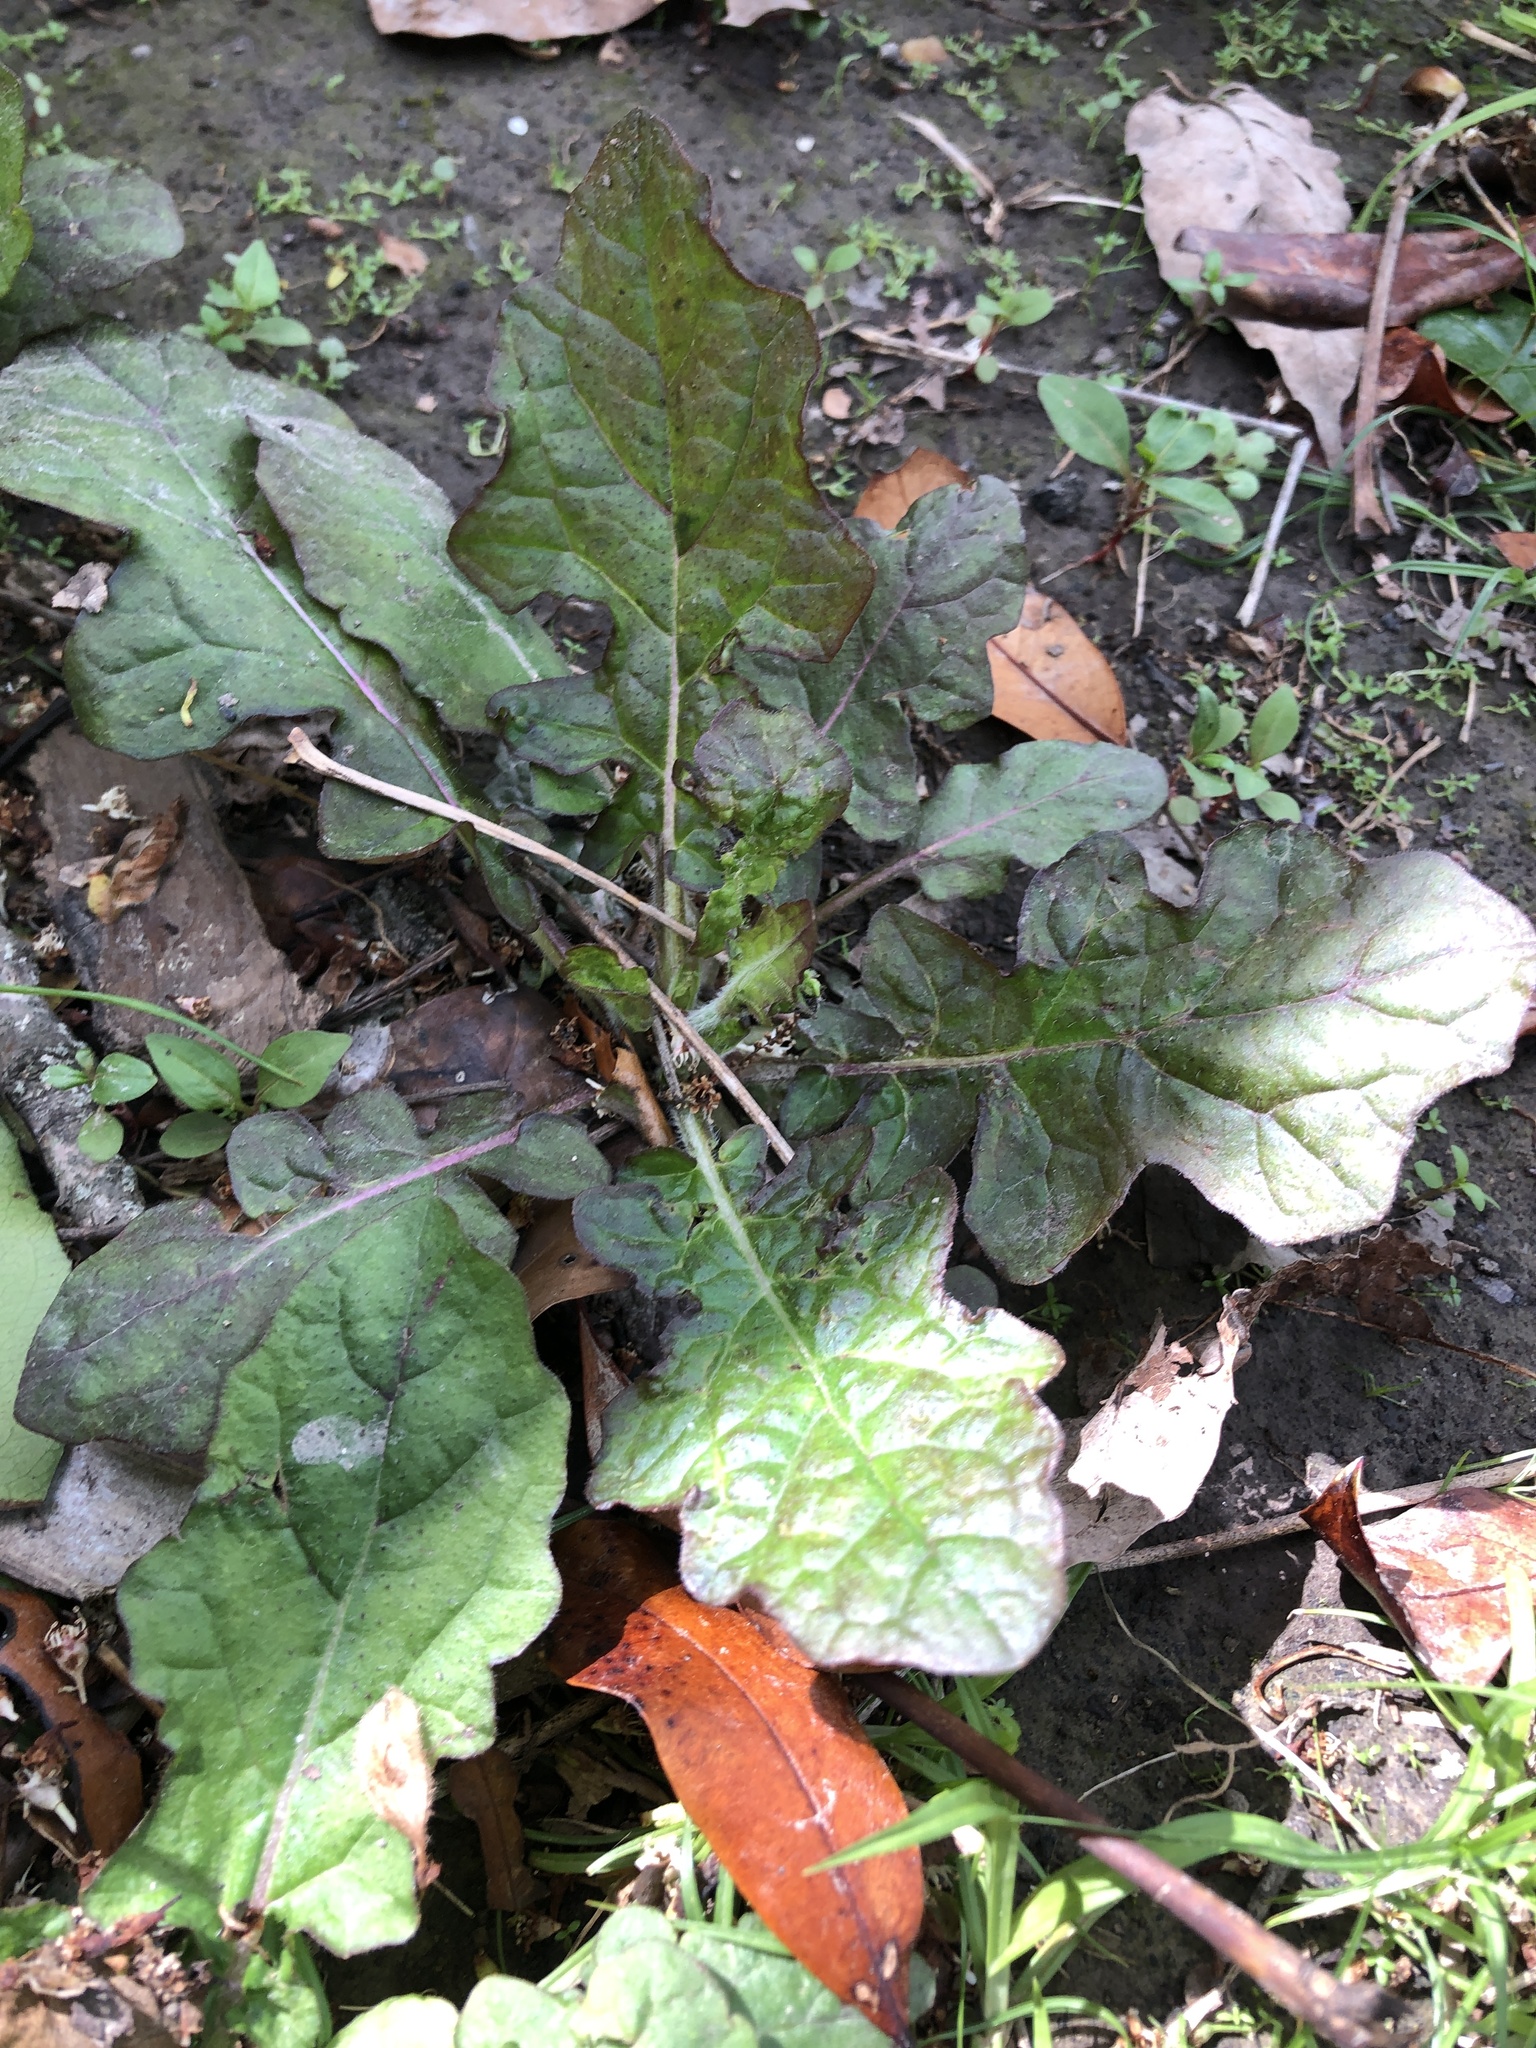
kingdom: Plantae
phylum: Tracheophyta
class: Magnoliopsida
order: Lamiales
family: Lamiaceae
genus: Salvia
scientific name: Salvia lyrata
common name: Cancerweed
